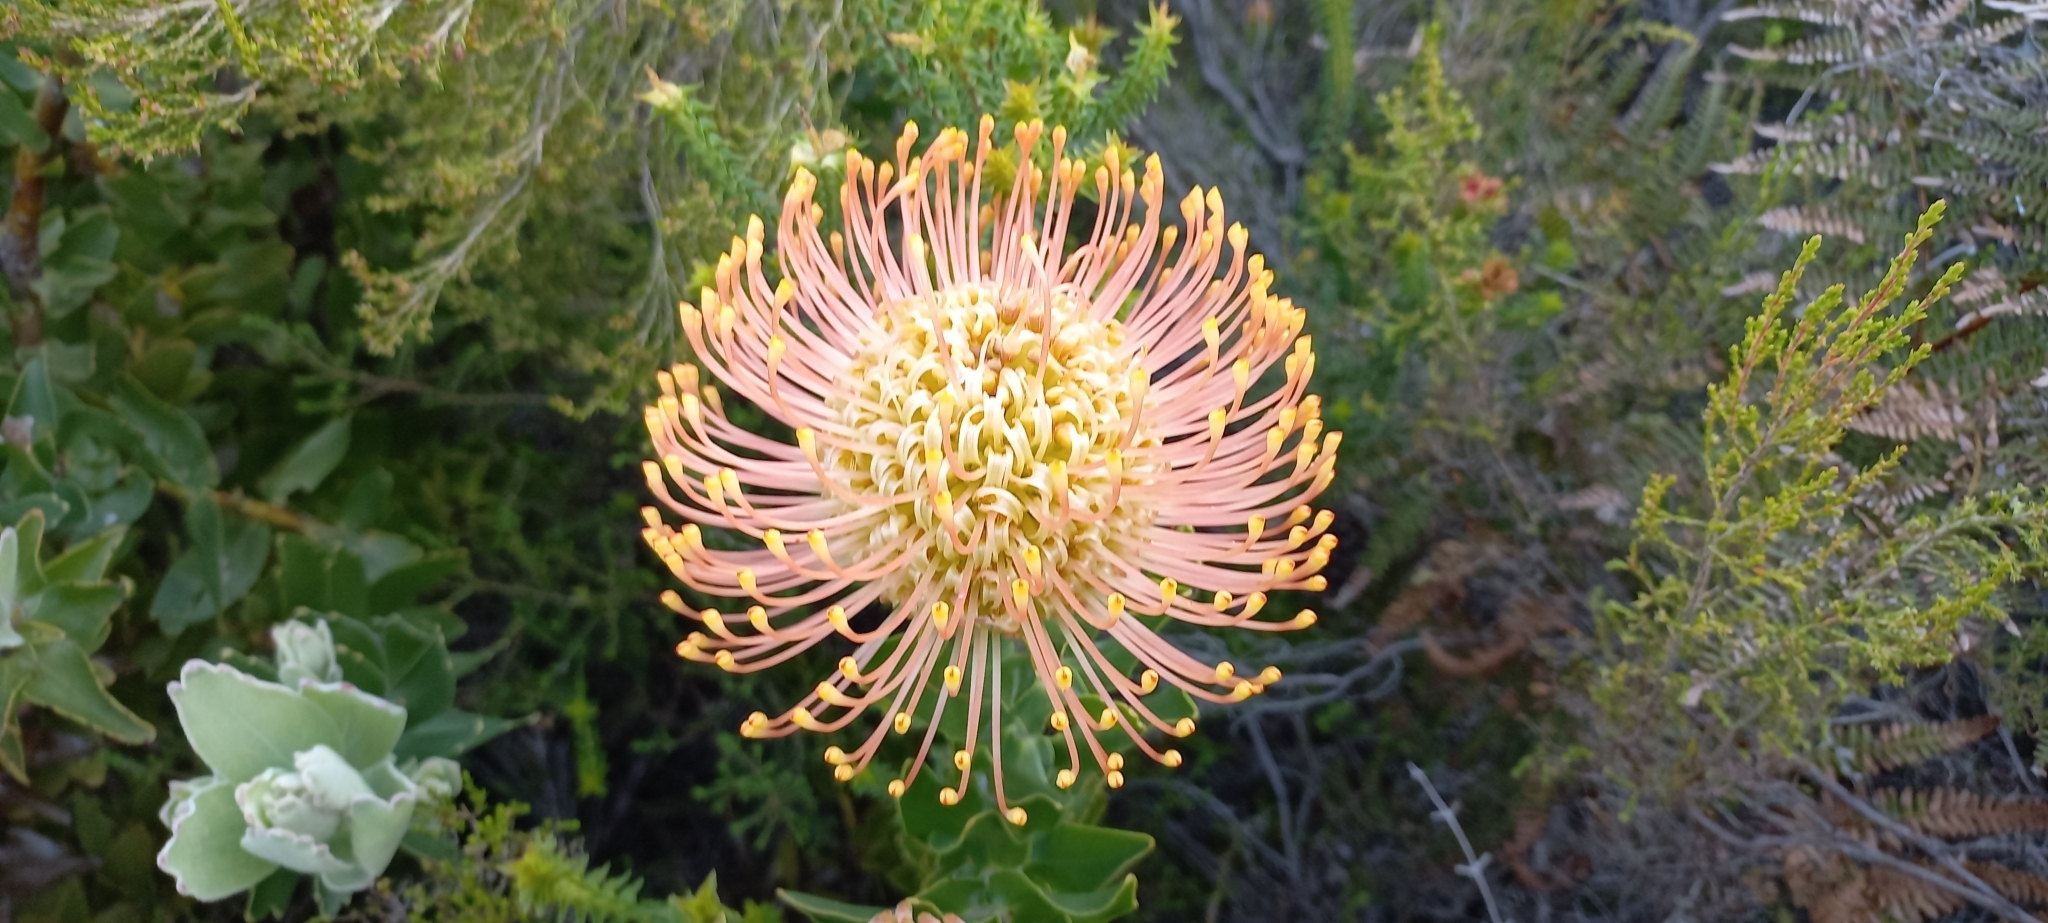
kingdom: Plantae
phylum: Tracheophyta
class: Magnoliopsida
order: Proteales
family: Proteaceae
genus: Leucospermum
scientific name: Leucospermum cordifolium
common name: Red pincushion-protea
